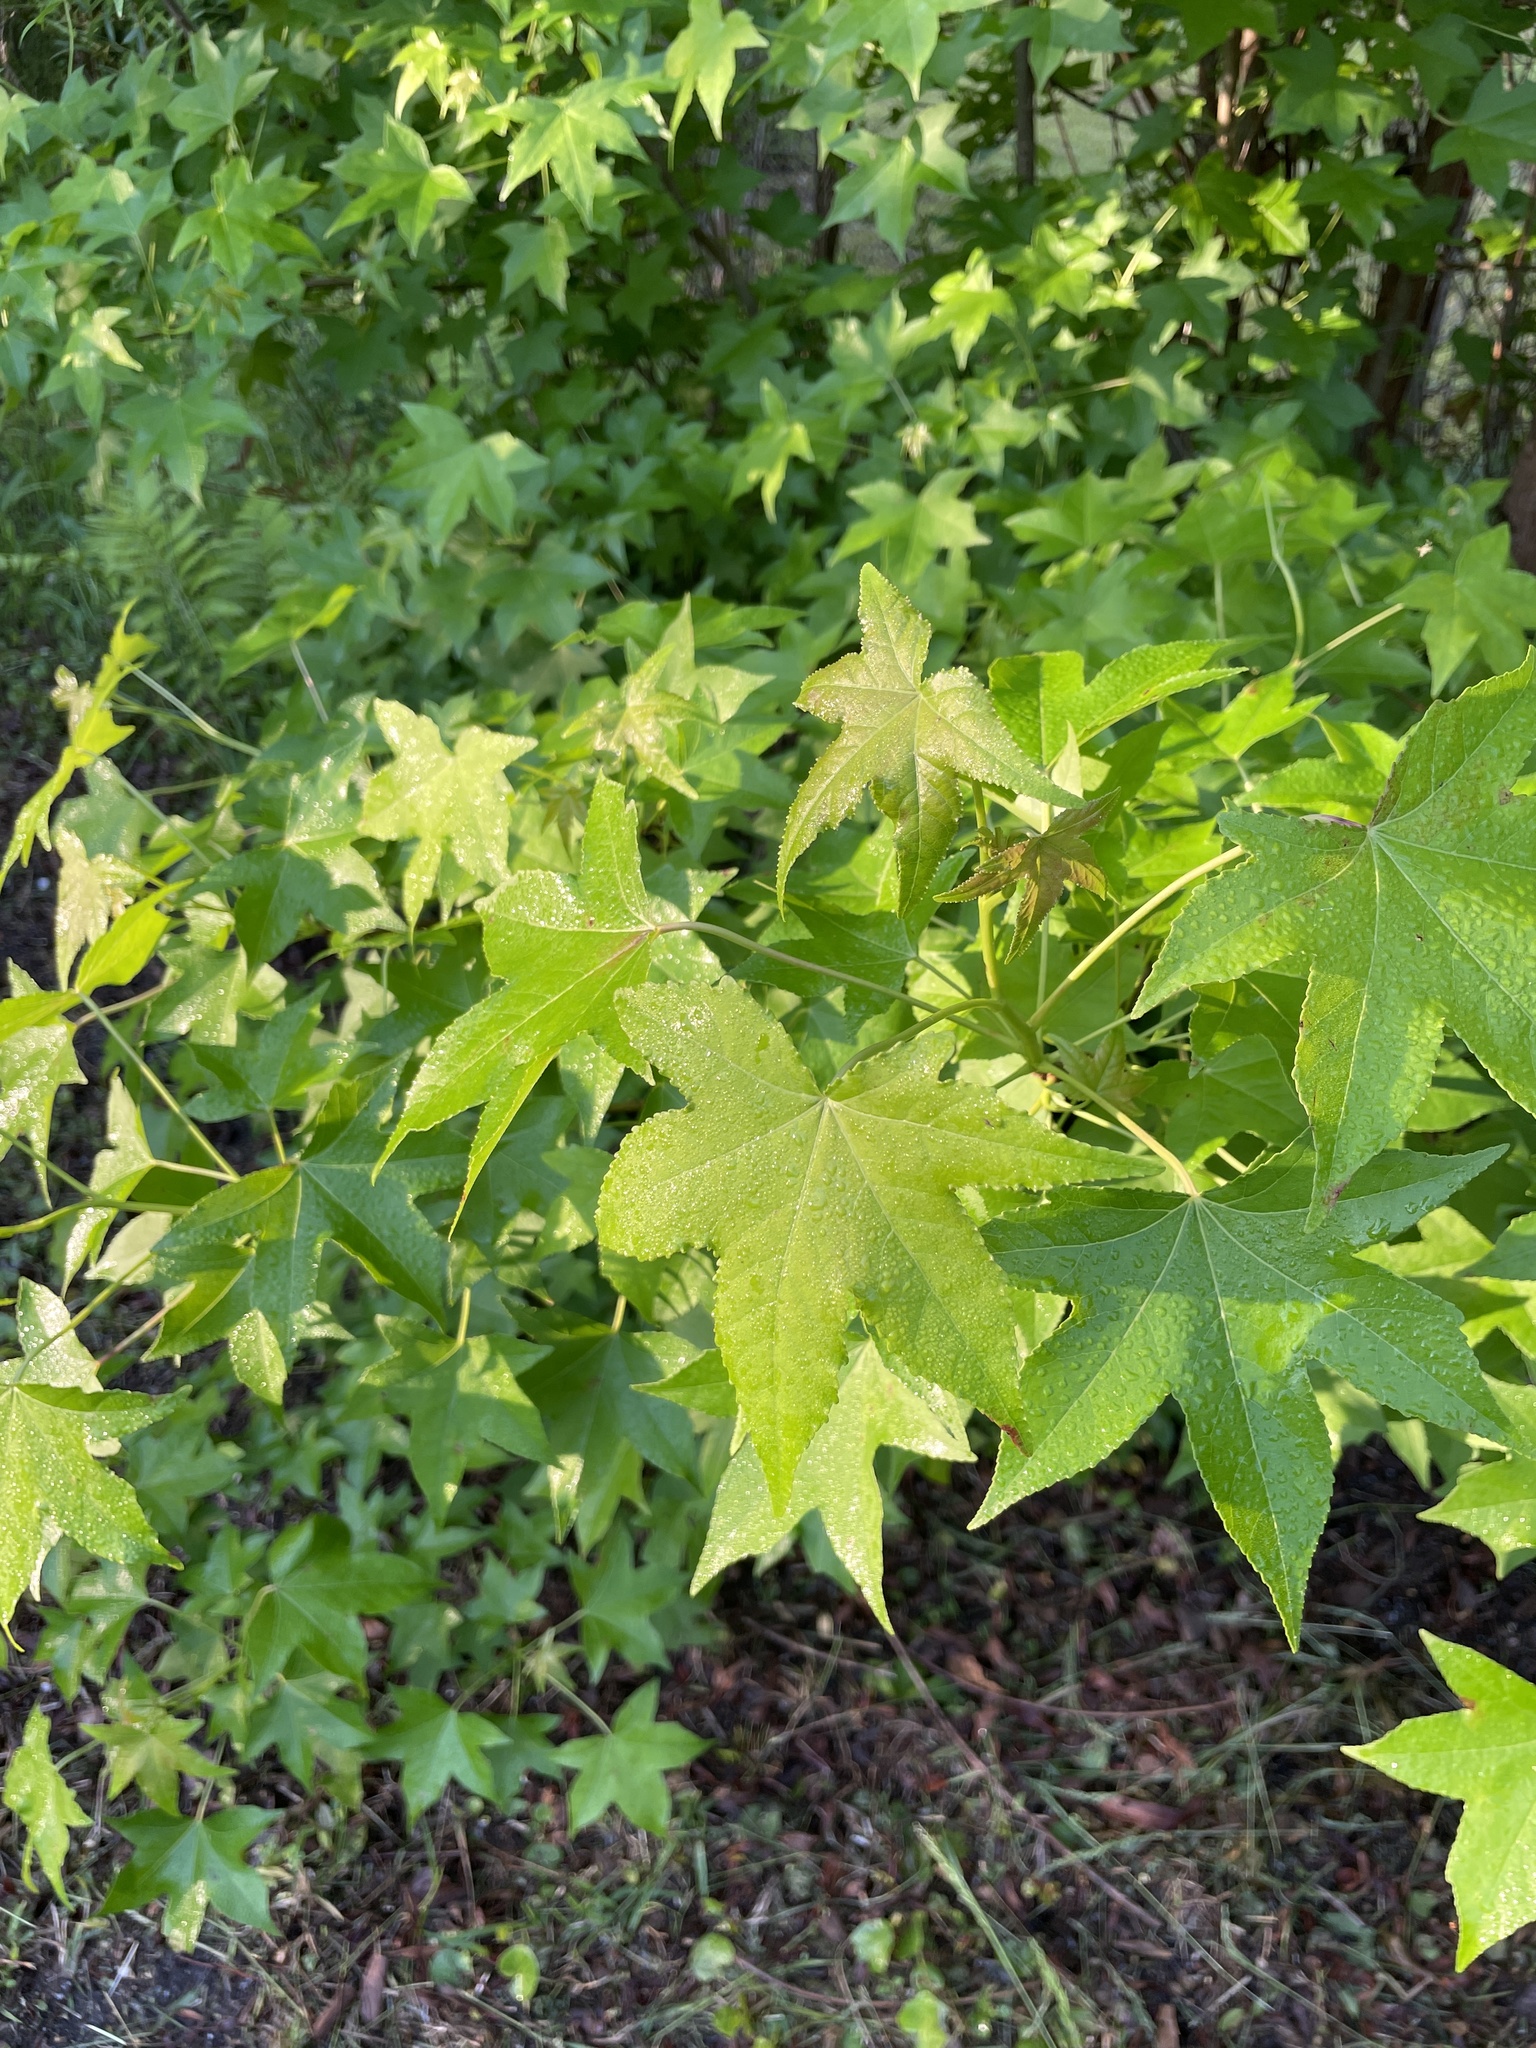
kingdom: Plantae
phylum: Tracheophyta
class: Magnoliopsida
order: Saxifragales
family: Altingiaceae
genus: Liquidambar
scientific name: Liquidambar styraciflua
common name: Sweet gum
